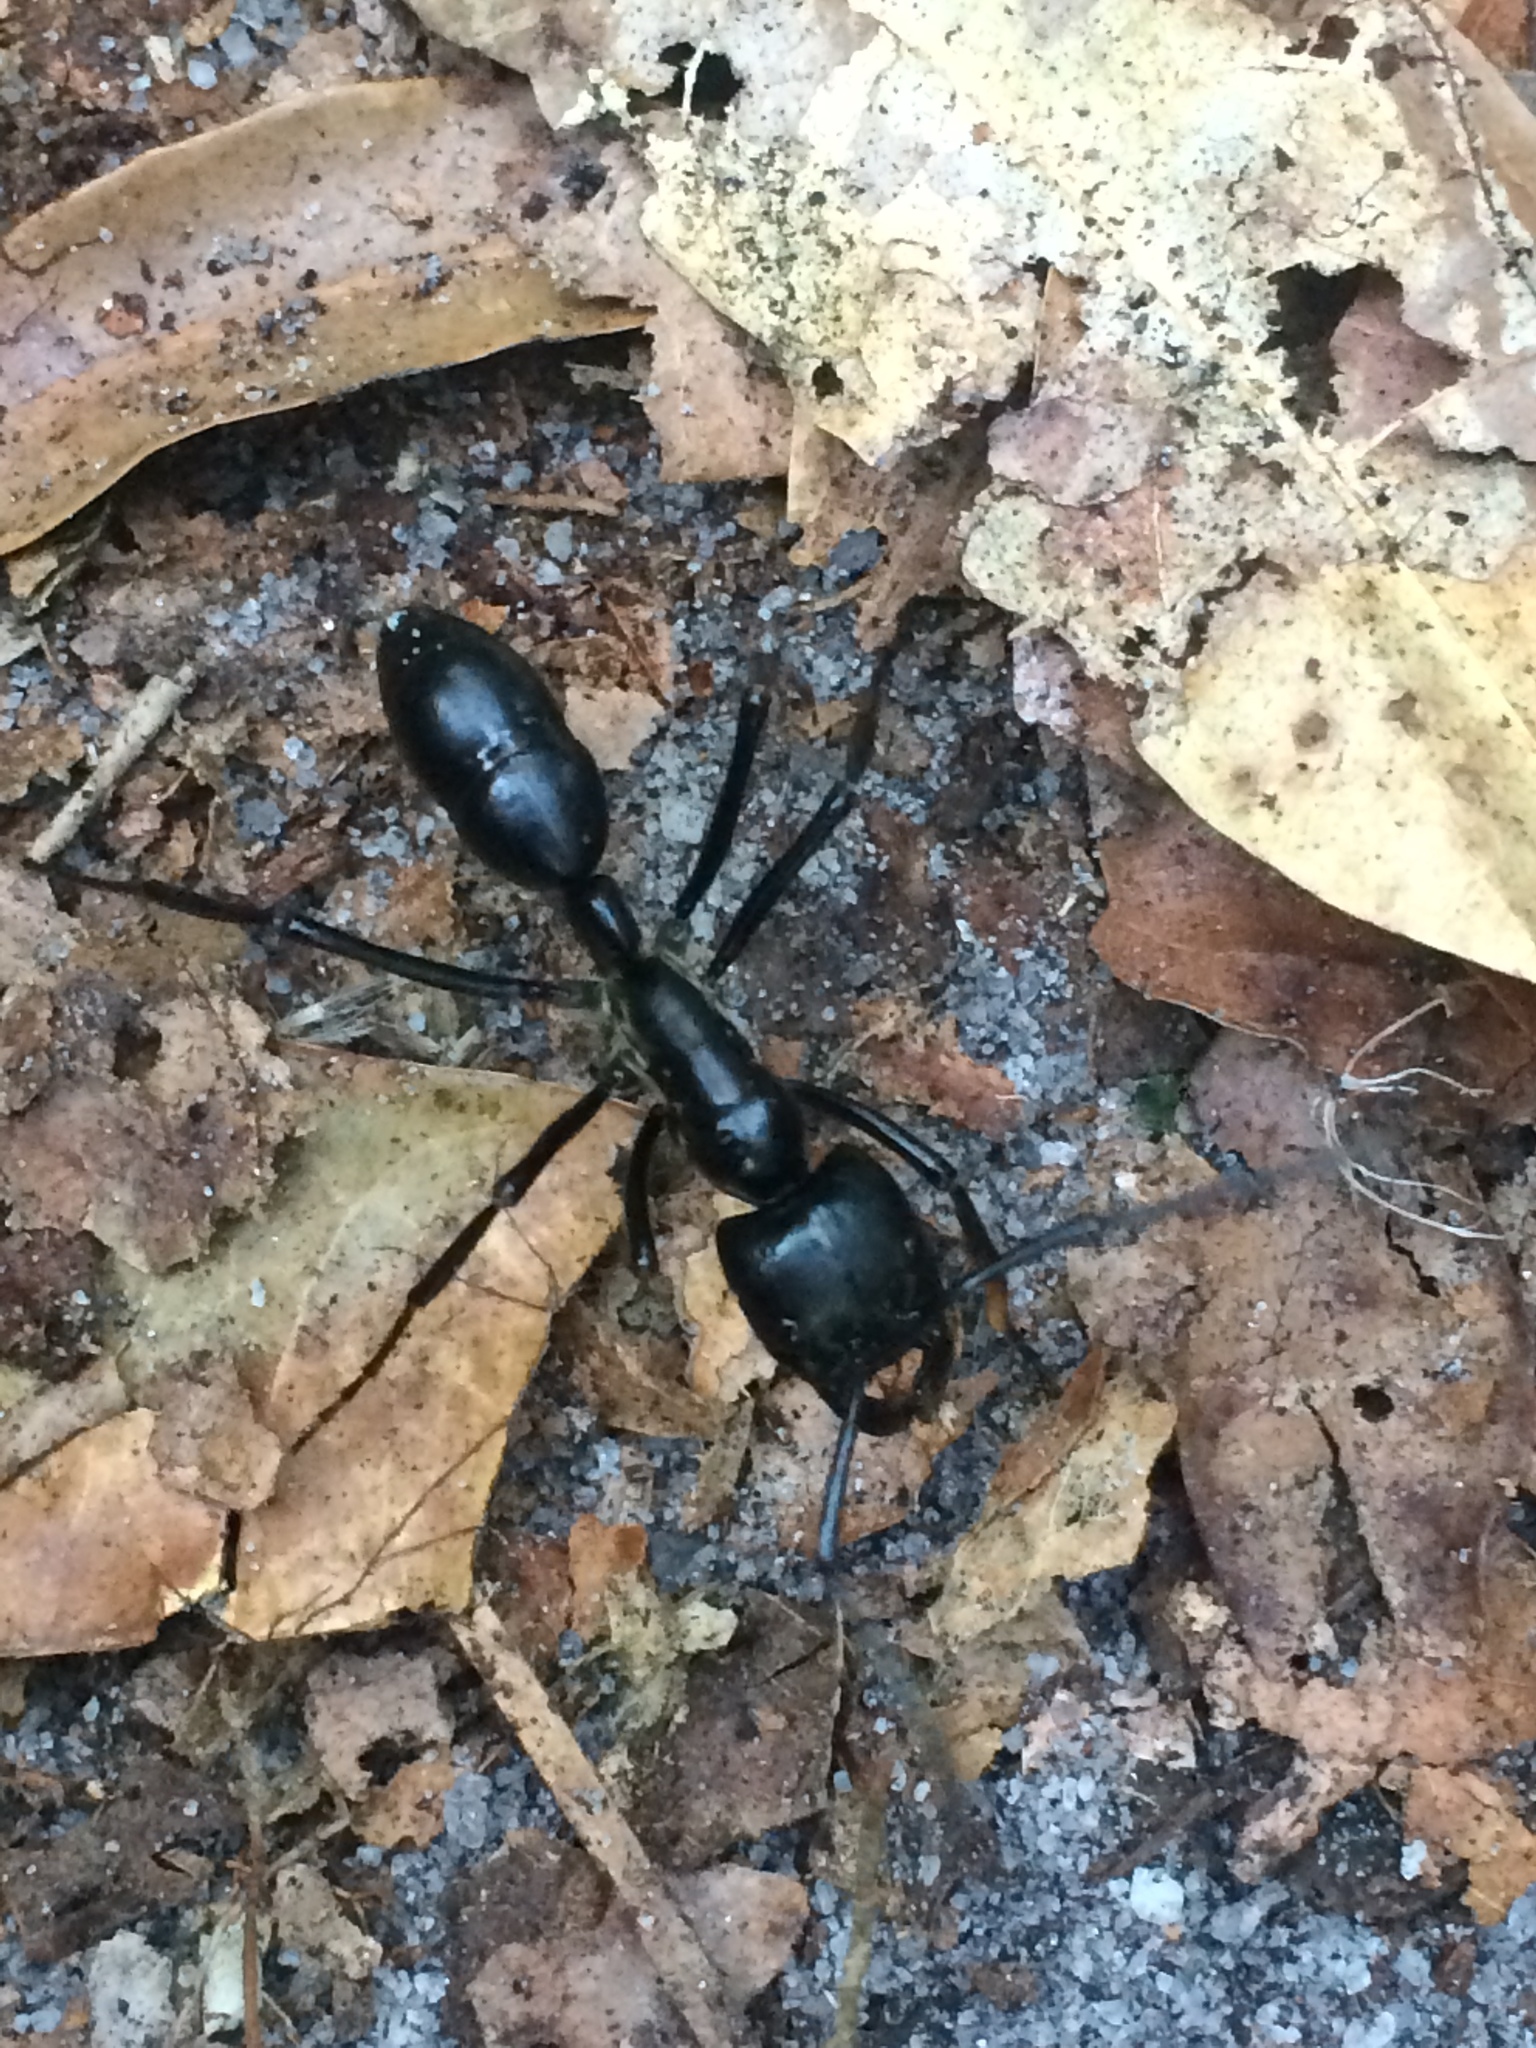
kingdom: Animalia
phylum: Arthropoda
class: Insecta
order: Hymenoptera
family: Formicidae
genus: Dinoponera
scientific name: Dinoponera quadriceps
